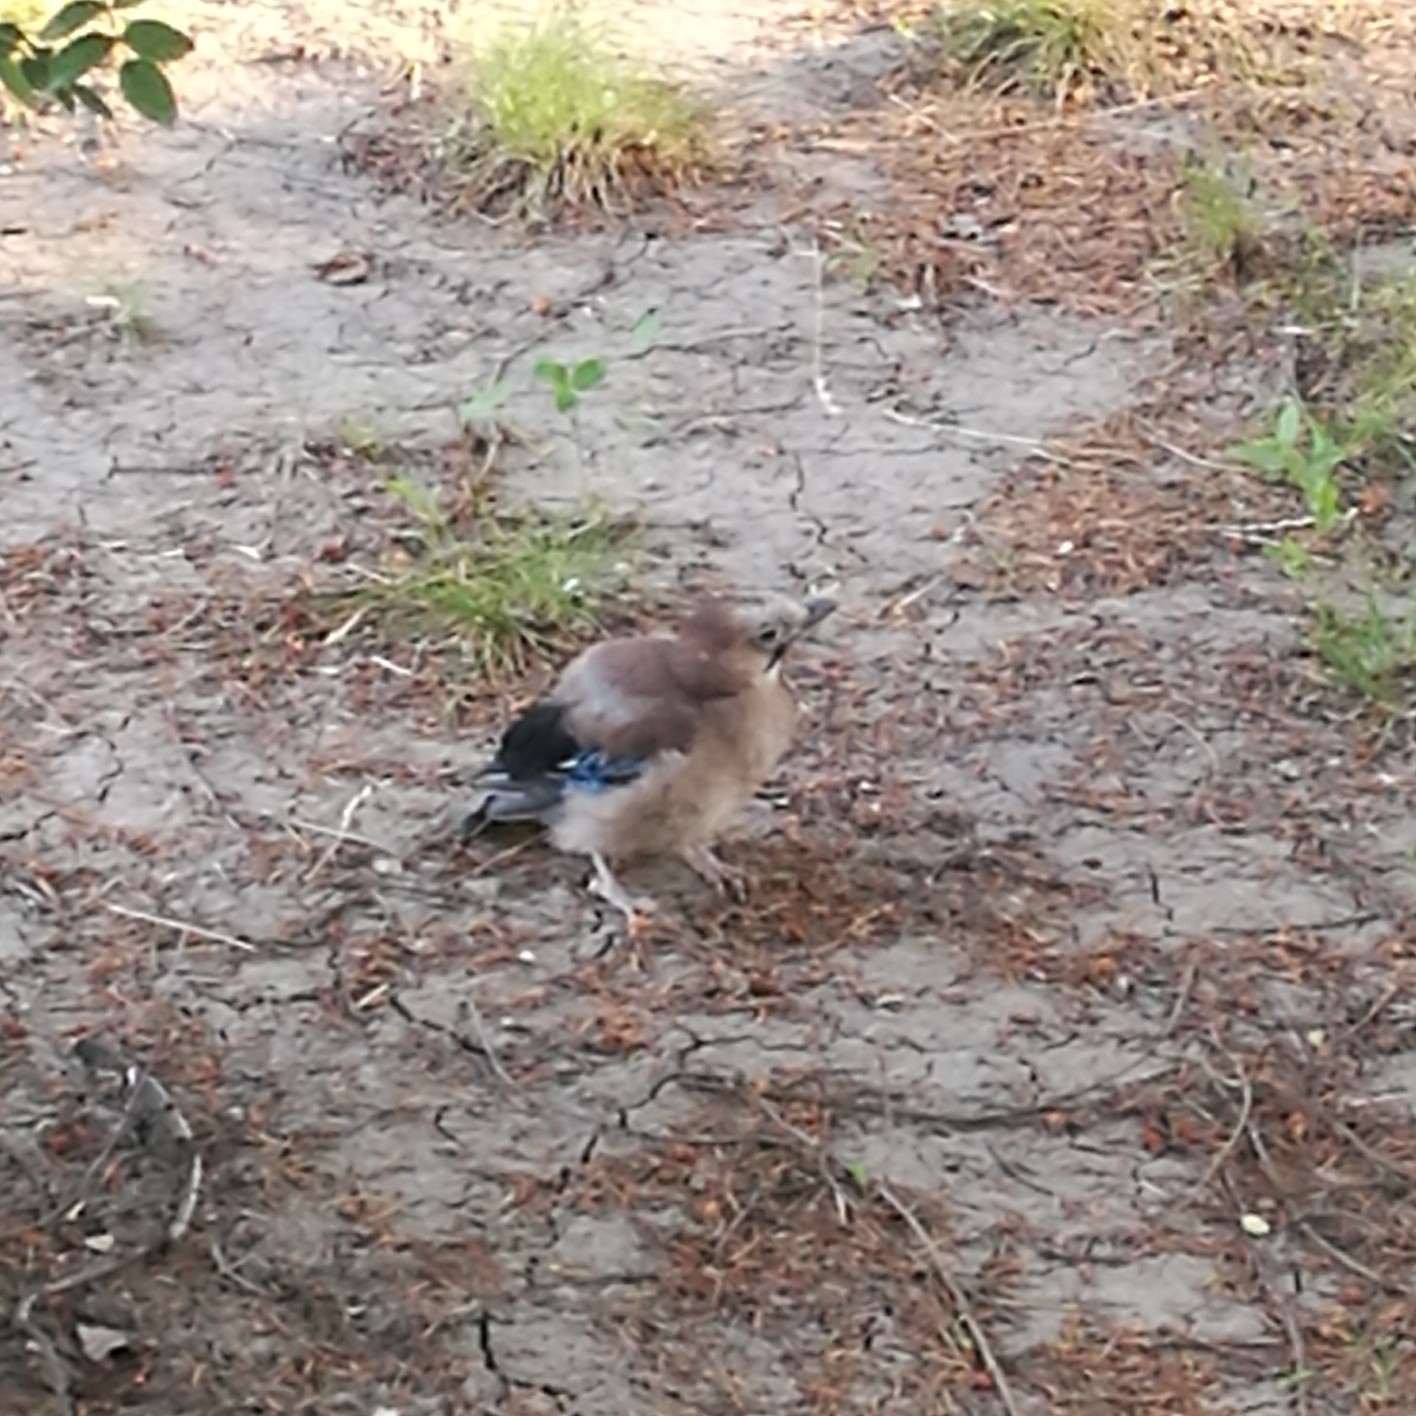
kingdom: Animalia
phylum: Chordata
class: Aves
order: Passeriformes
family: Corvidae
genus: Garrulus
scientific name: Garrulus glandarius
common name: Eurasian jay
